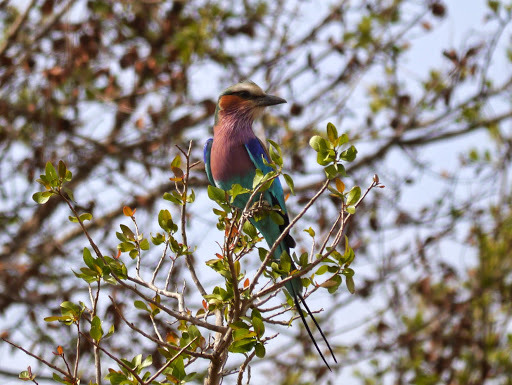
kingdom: Animalia
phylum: Chordata
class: Aves
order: Coraciiformes
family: Coraciidae
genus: Coracias
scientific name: Coracias caudatus
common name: Lilac-breasted roller
